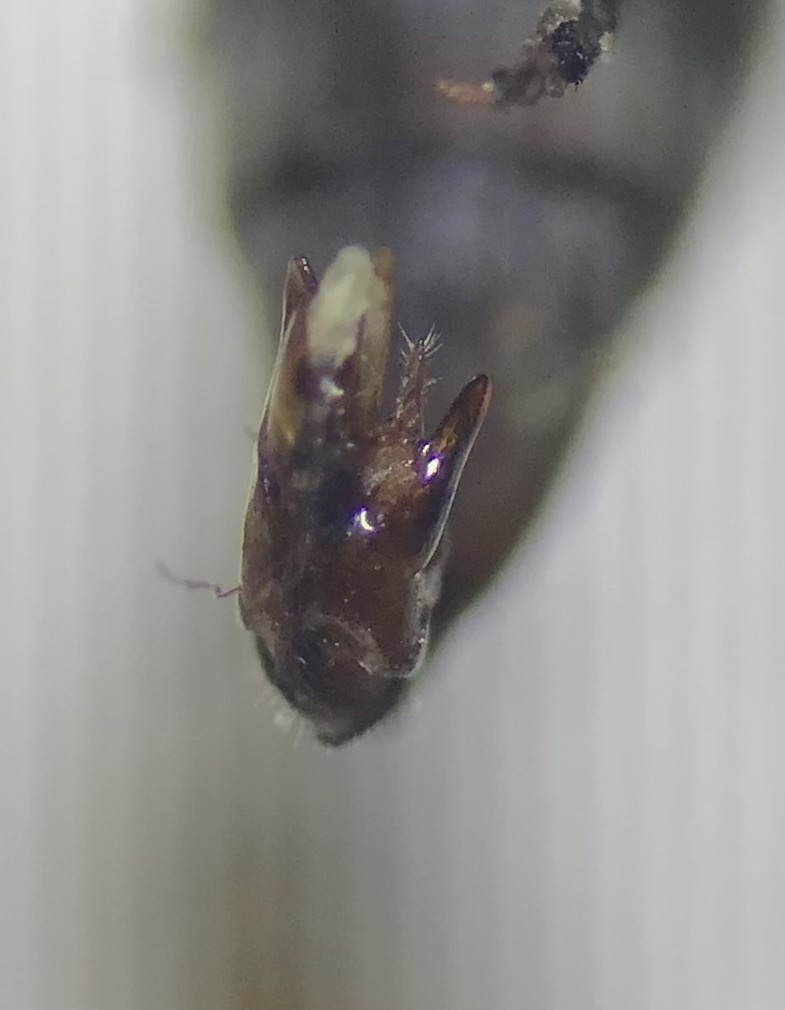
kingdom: Animalia
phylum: Arthropoda
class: Insecta
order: Coleoptera
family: Mordellidae
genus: Yakuhananomia
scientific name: Yakuhananomia bidentata
